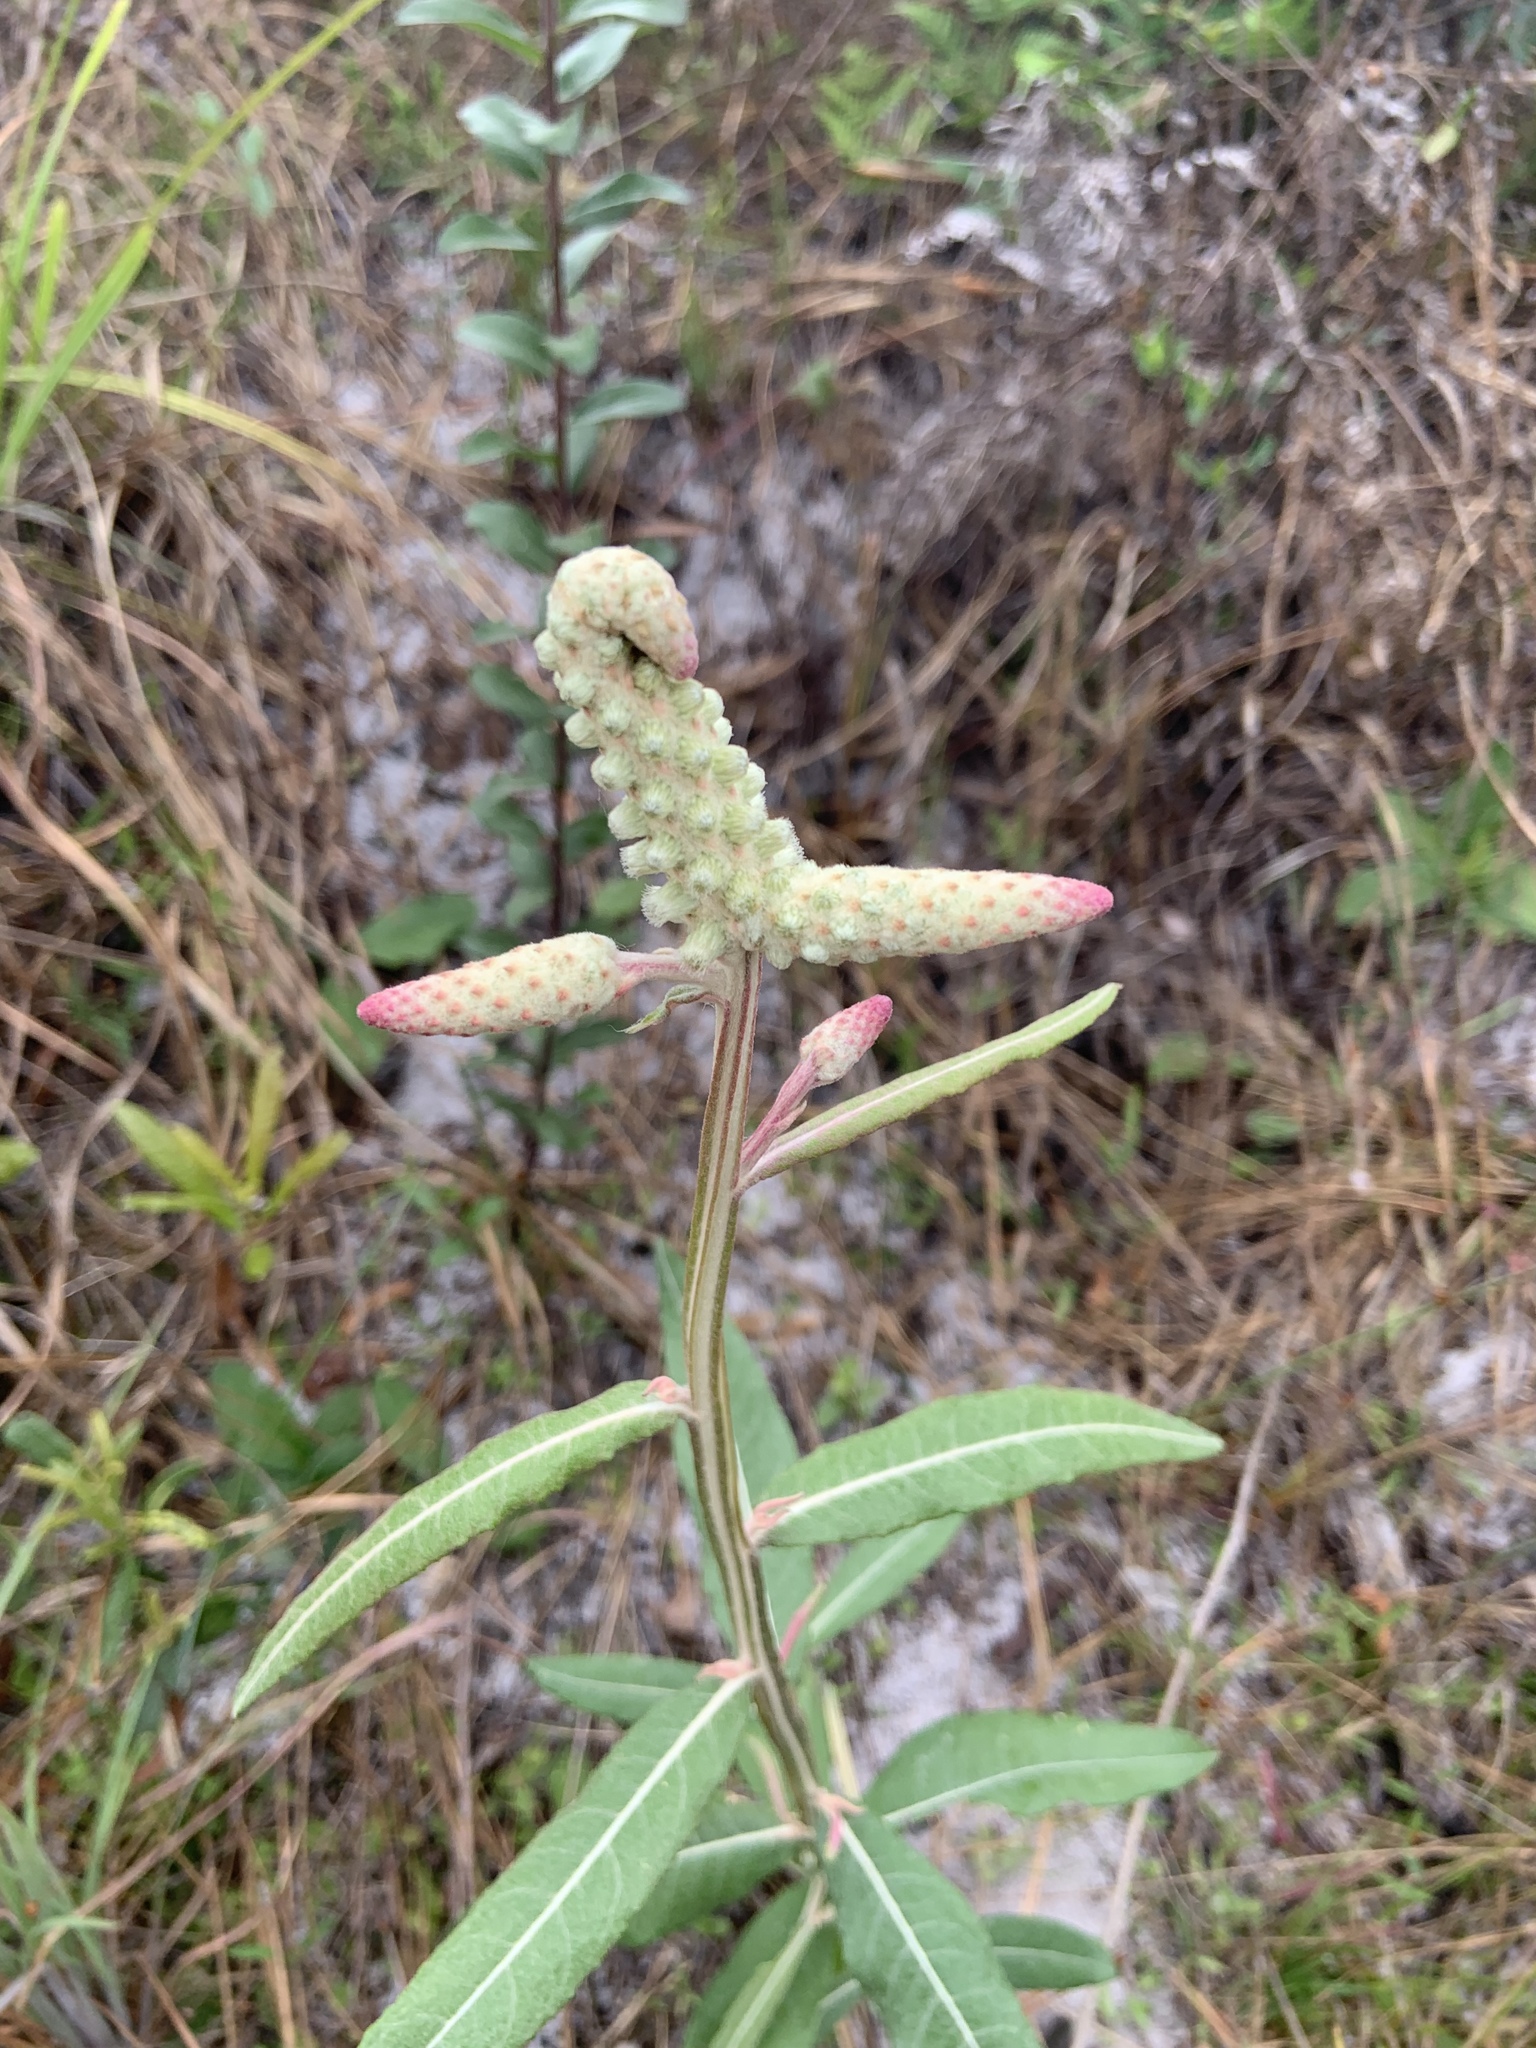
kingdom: Plantae
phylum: Tracheophyta
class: Magnoliopsida
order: Asterales
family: Asteraceae
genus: Pterocaulon
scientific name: Pterocaulon pycnostachyum
